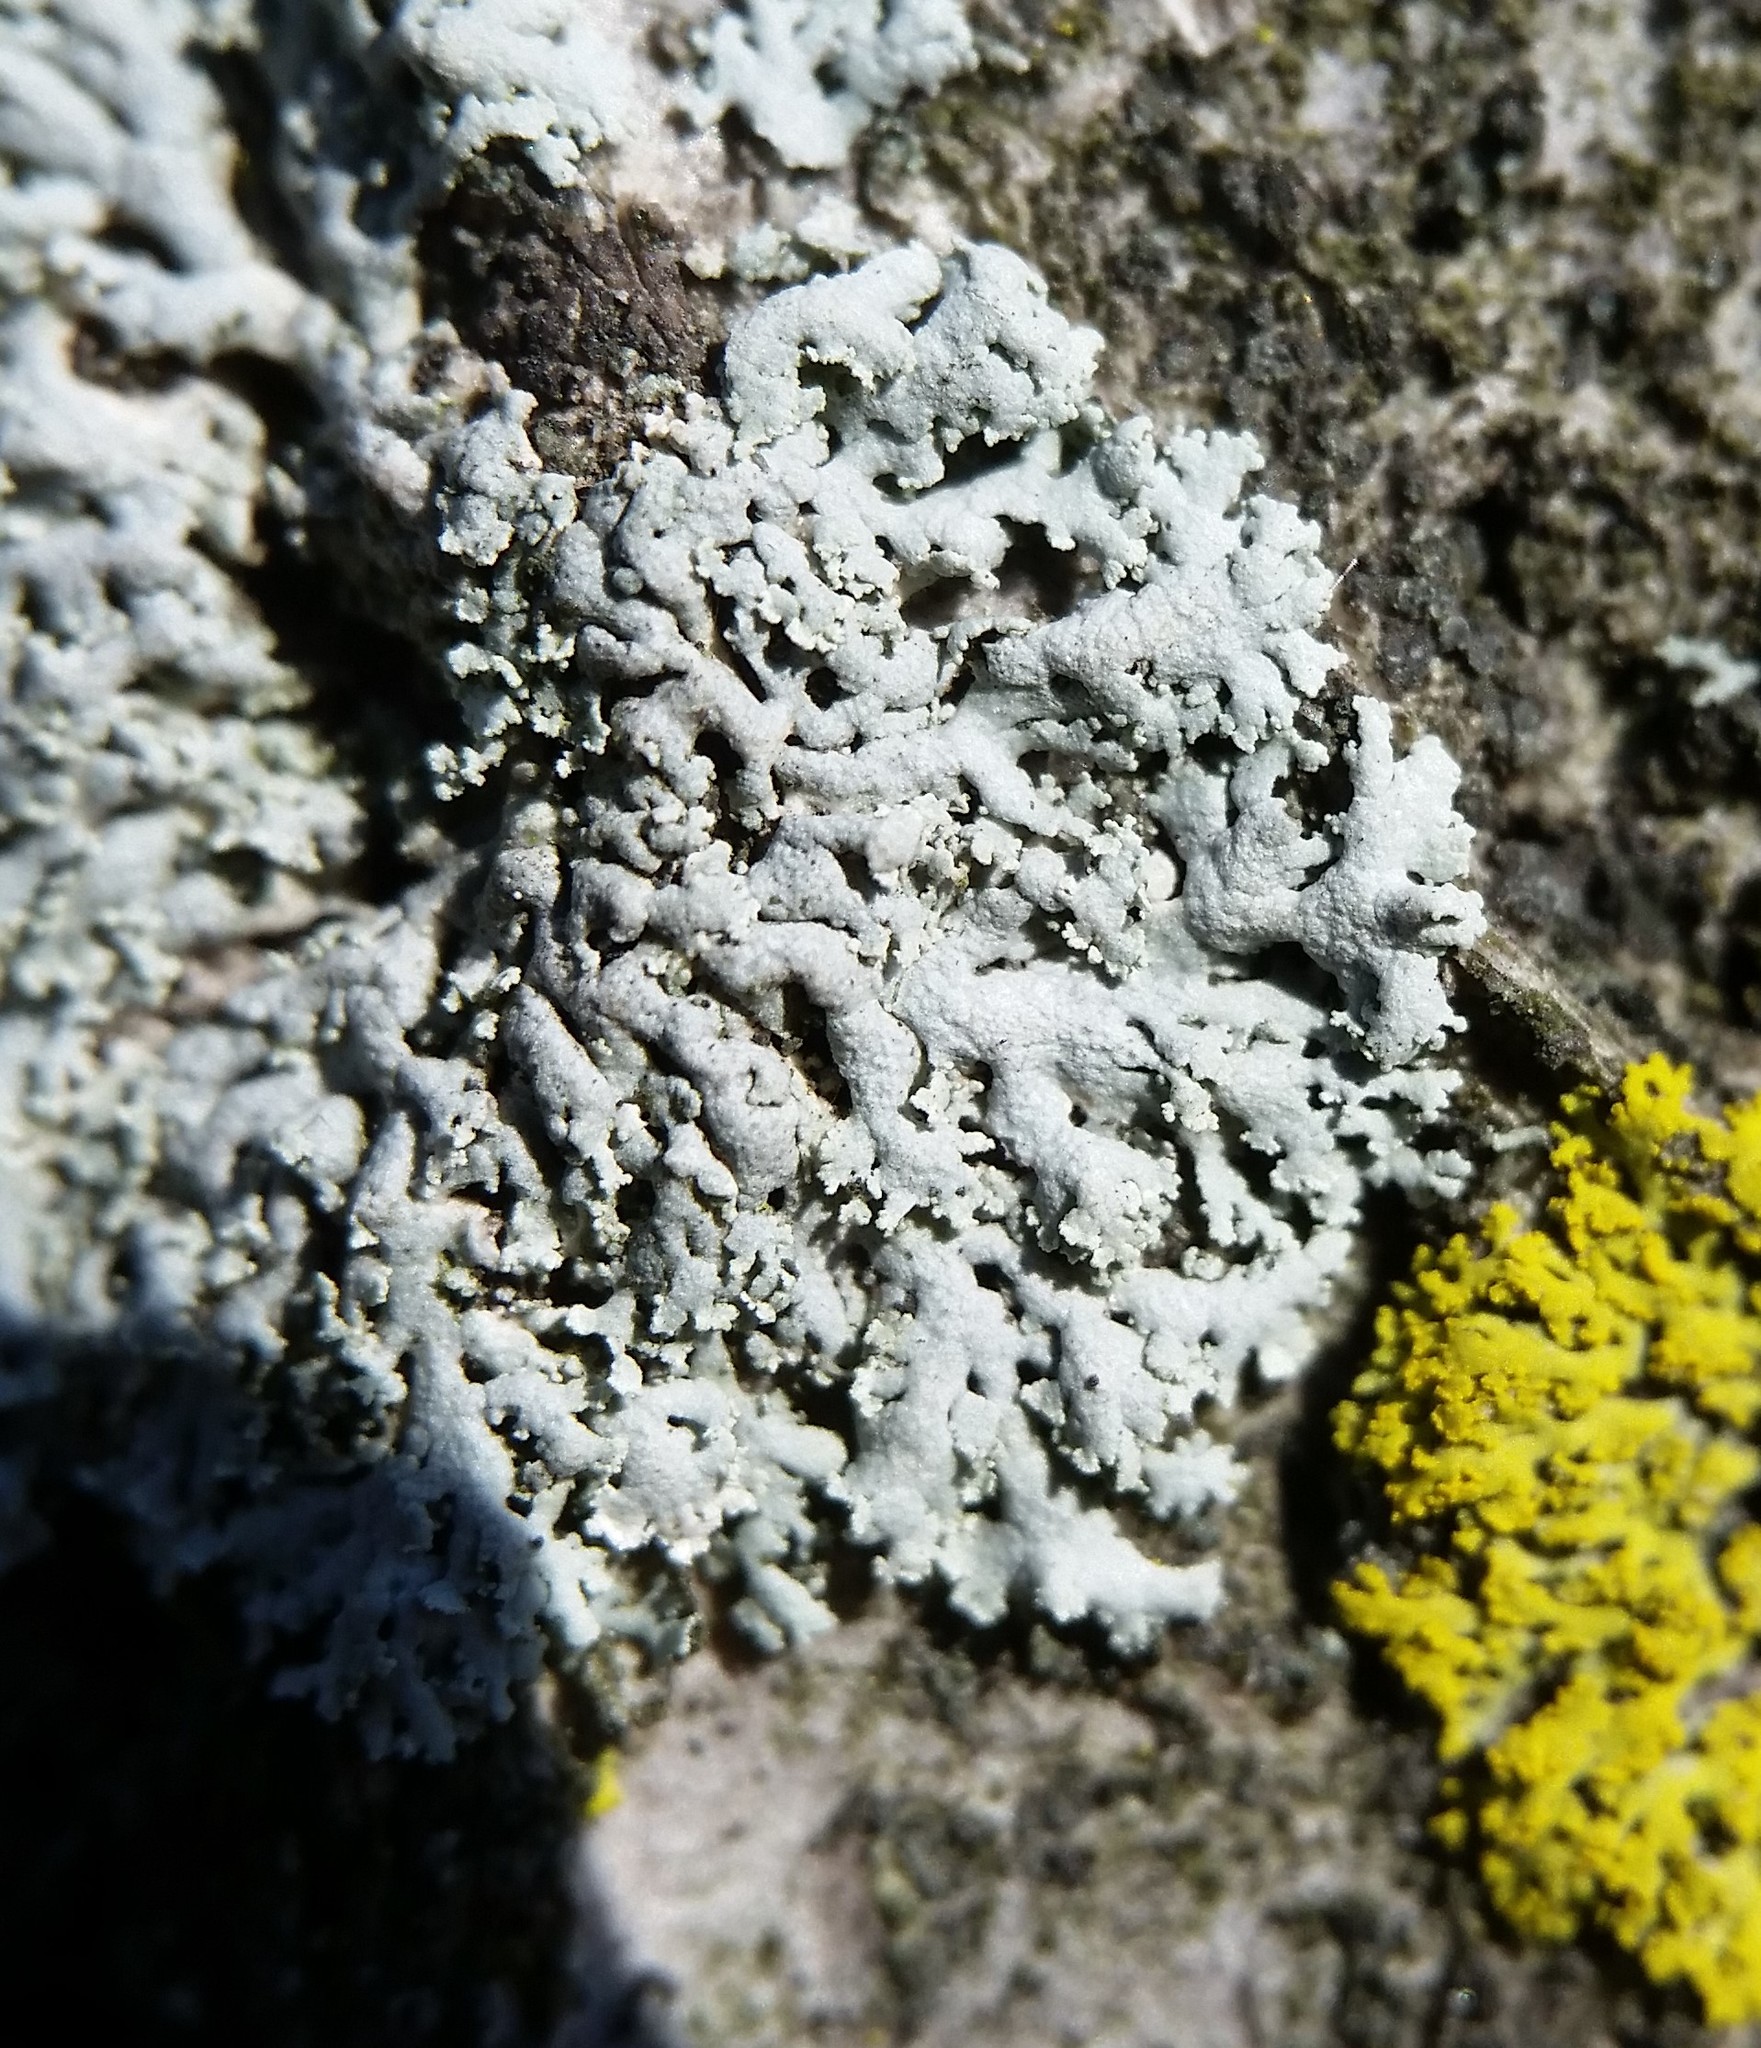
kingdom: Fungi
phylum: Ascomycota
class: Lecanoromycetes
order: Caliciales
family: Physciaceae
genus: Physcia
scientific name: Physcia millegrana
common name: Rosette lichen
